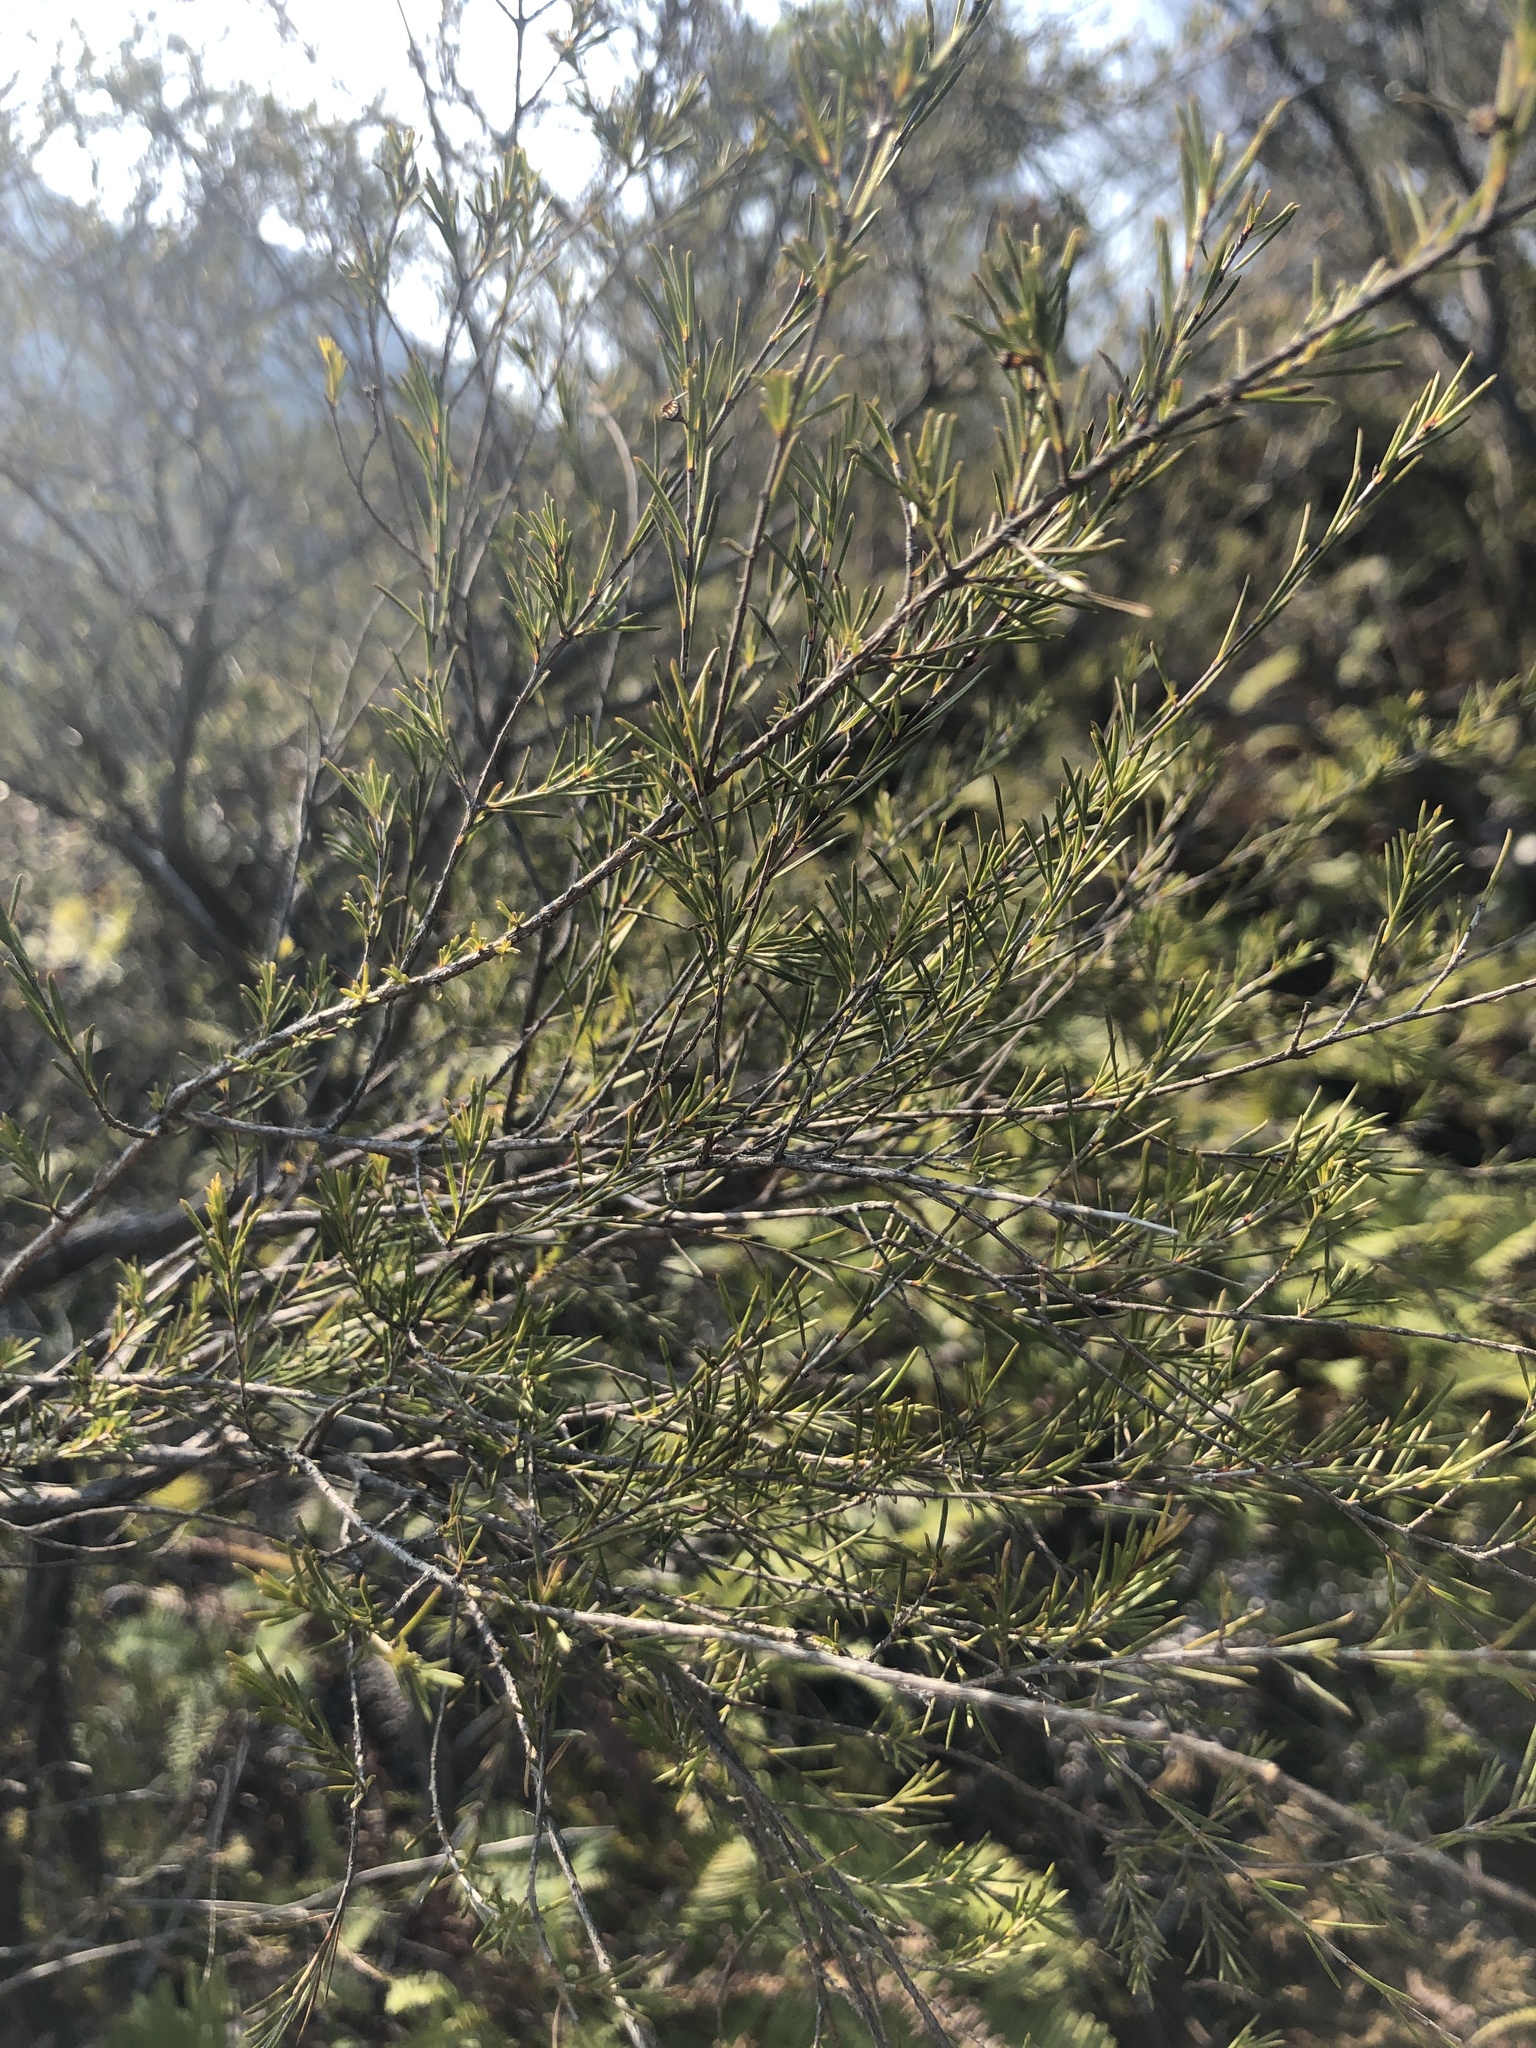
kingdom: Plantae
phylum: Tracheophyta
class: Magnoliopsida
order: Myrtales
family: Myrtaceae
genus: Baeckea
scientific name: Baeckea frutescens
